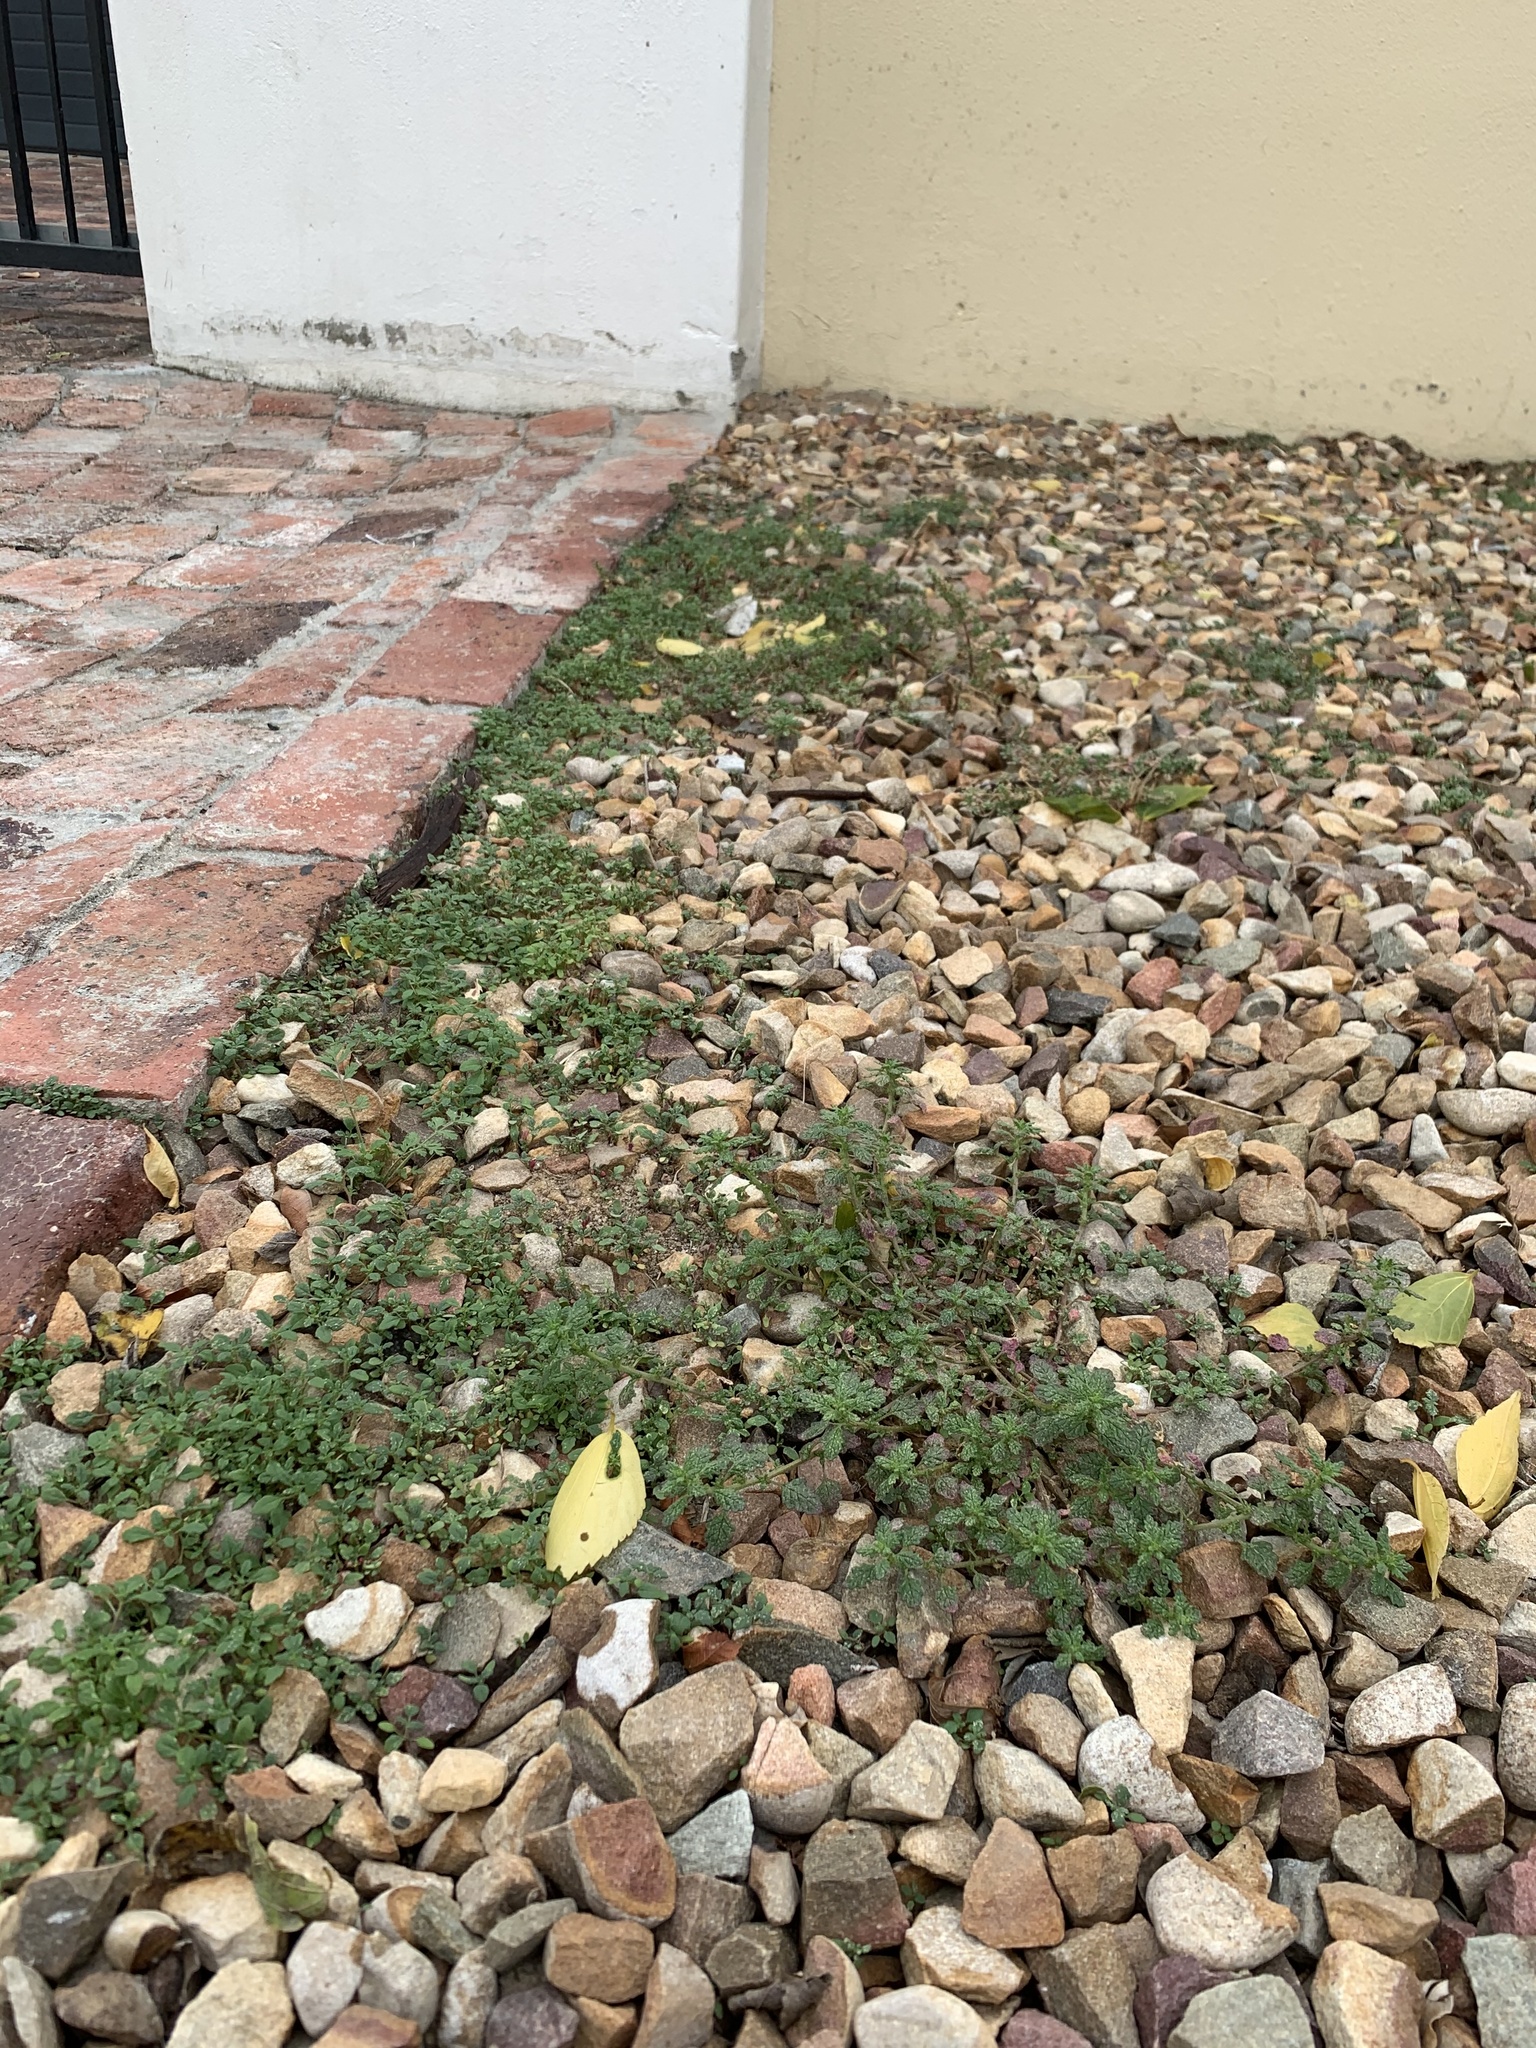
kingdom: Plantae
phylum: Tracheophyta
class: Magnoliopsida
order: Caryophyllales
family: Amaranthaceae
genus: Dysphania
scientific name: Dysphania pumilio
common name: Clammy goosefoot
